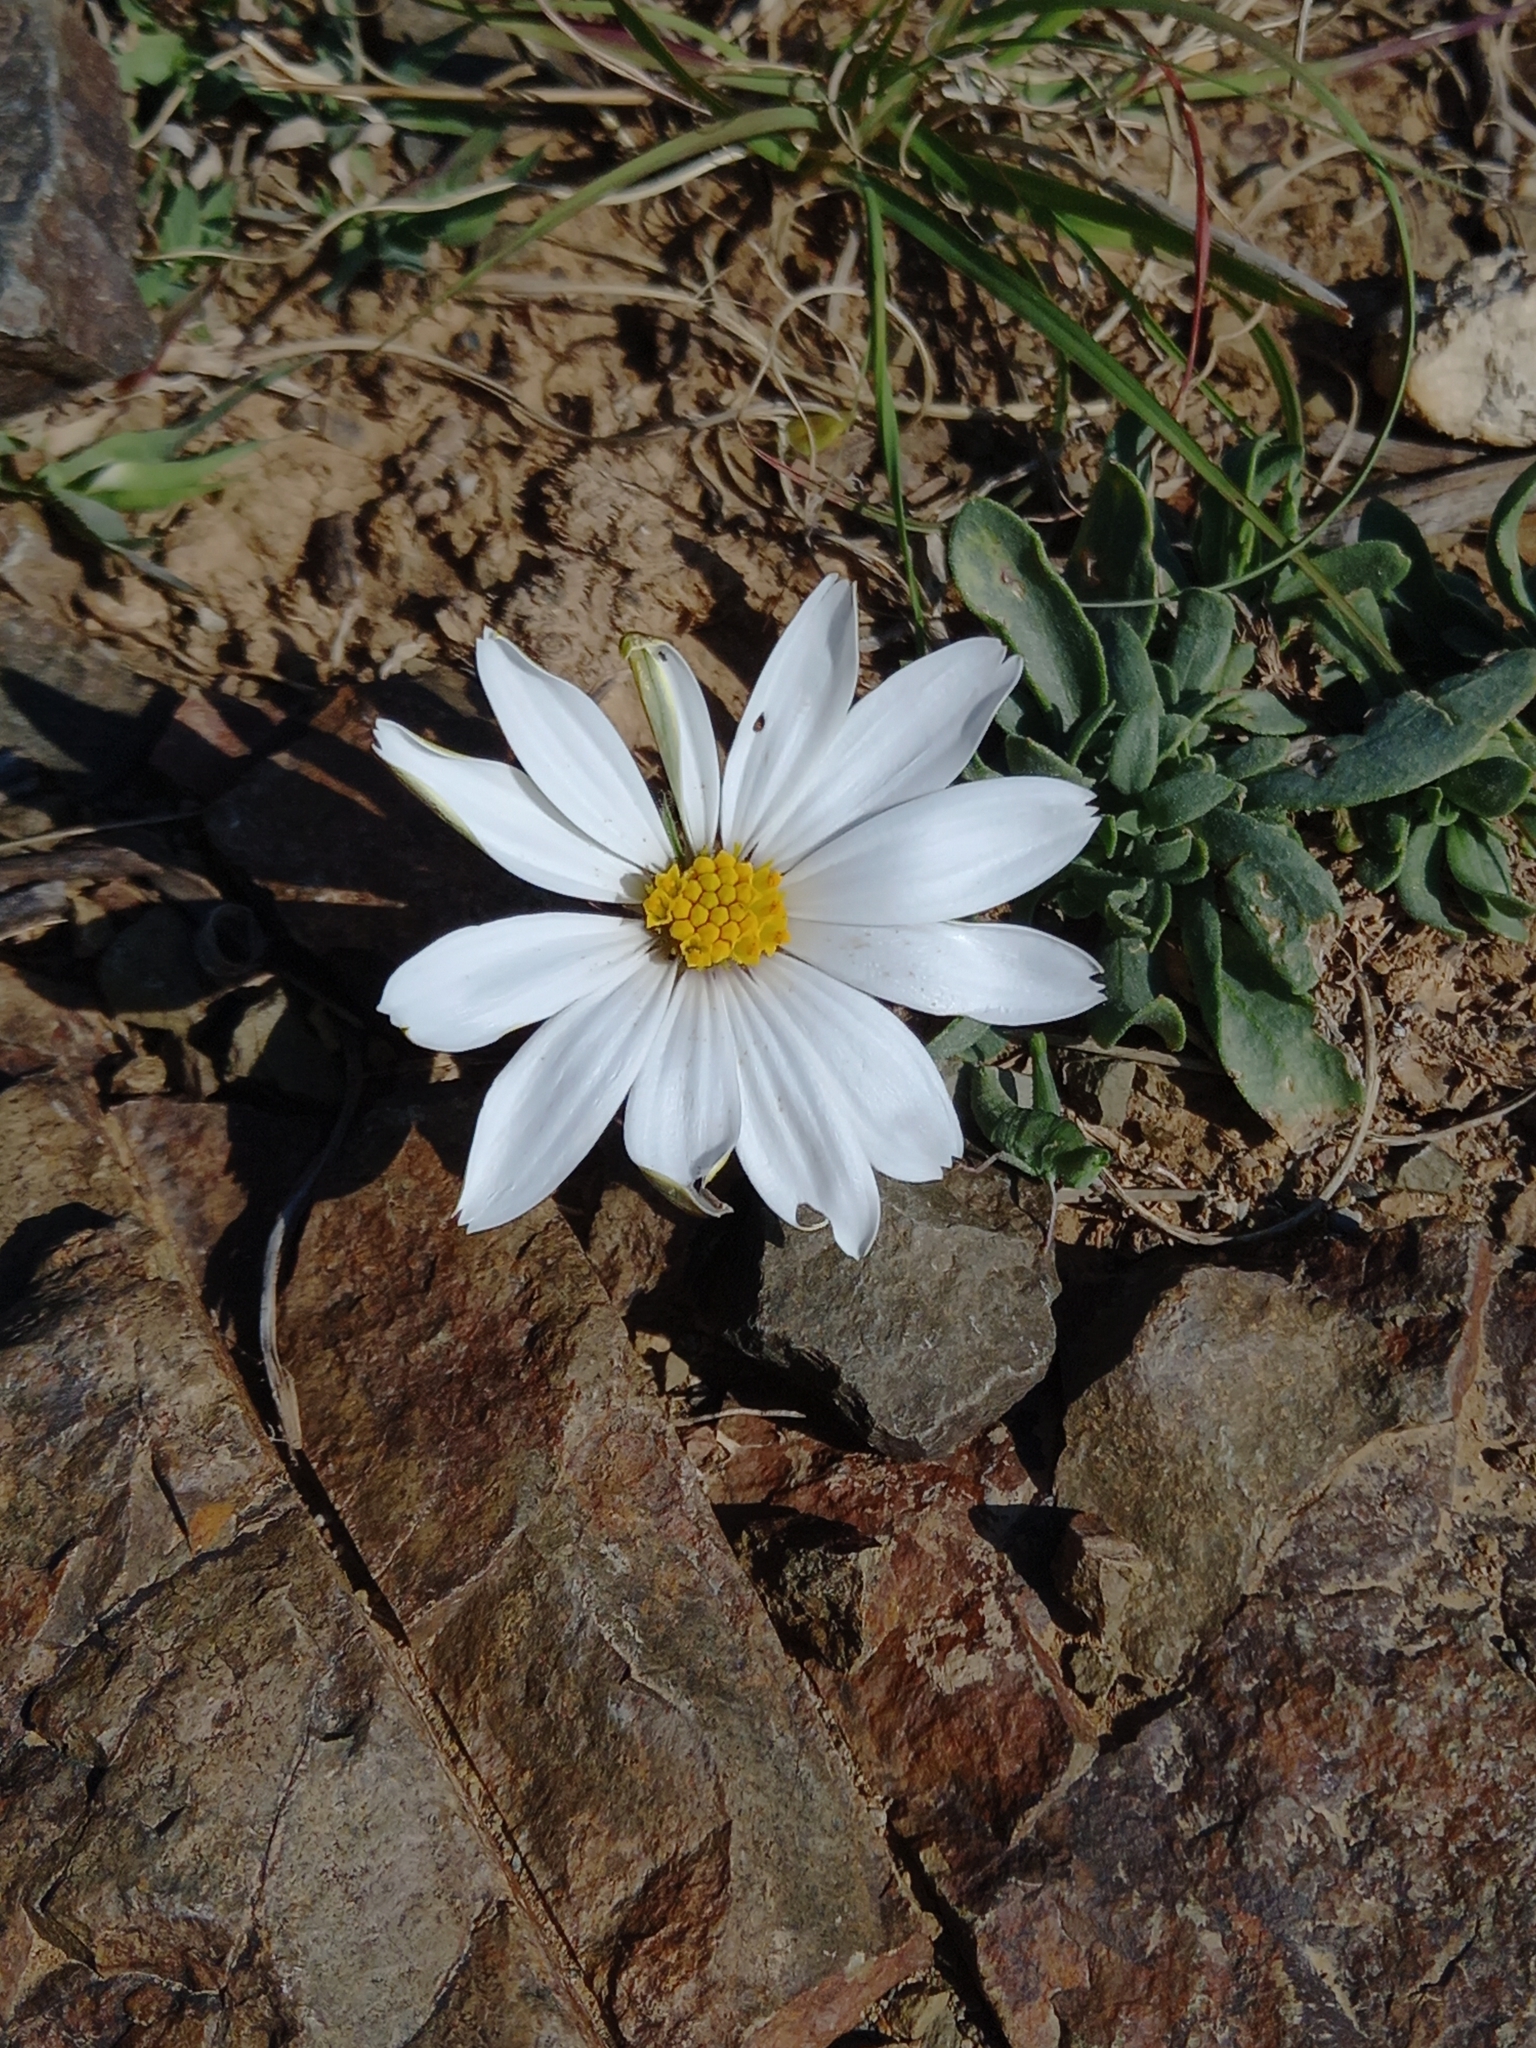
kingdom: Plantae
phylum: Tracheophyta
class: Magnoliopsida
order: Asterales
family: Asteraceae
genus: Dimorphotheca
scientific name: Dimorphotheca zeyheri
